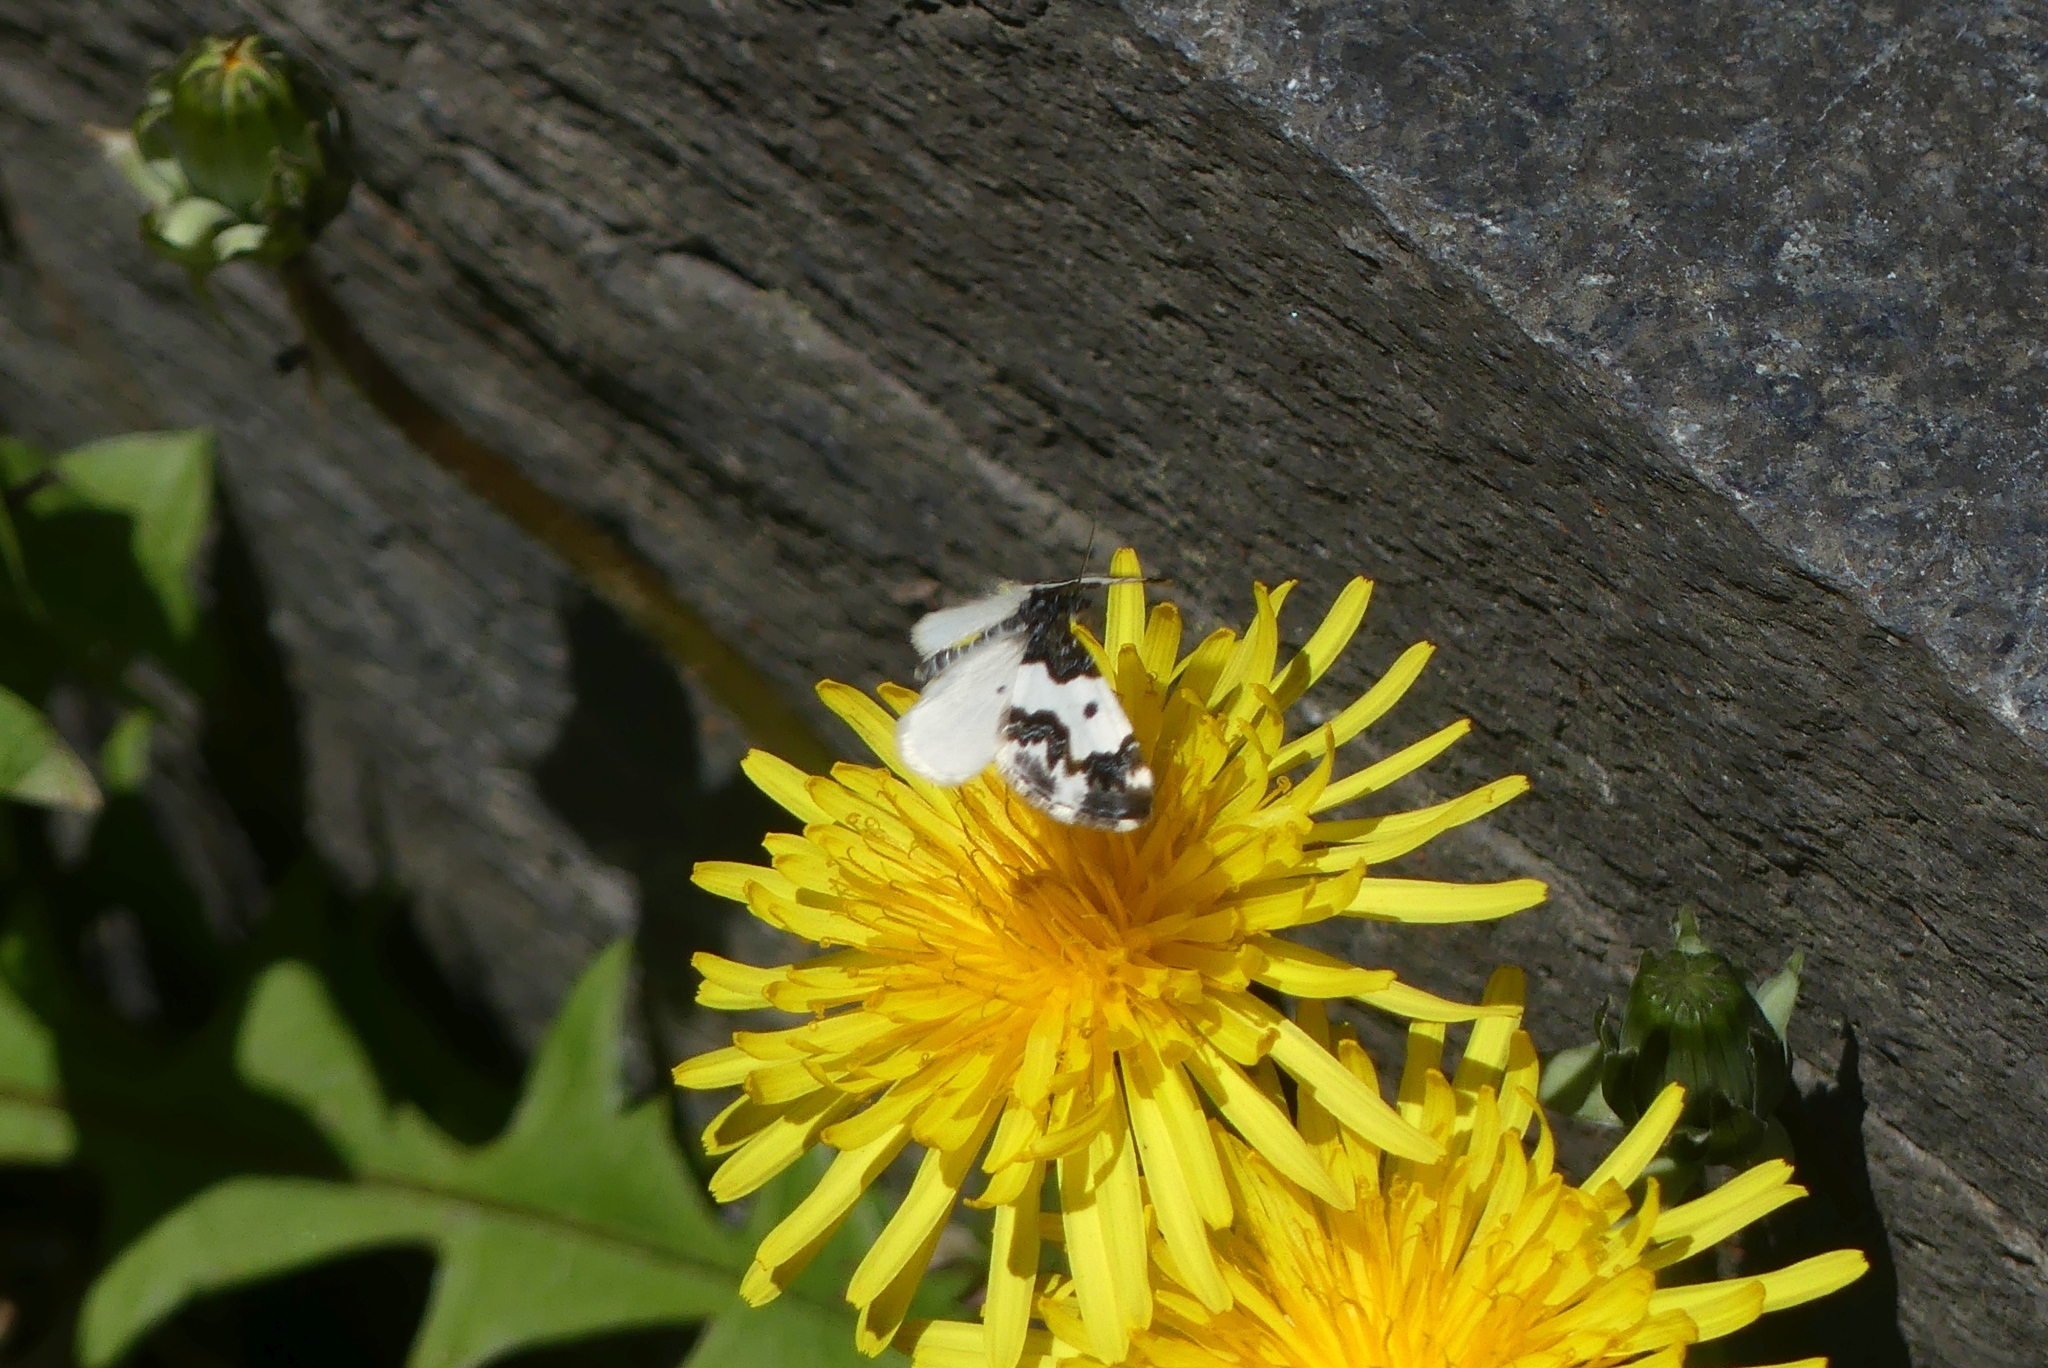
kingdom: Animalia
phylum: Arthropoda
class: Insecta
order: Lepidoptera
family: Geometridae
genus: Mesoleuca
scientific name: Mesoleuca gratulata
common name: Half-white carpet moth
